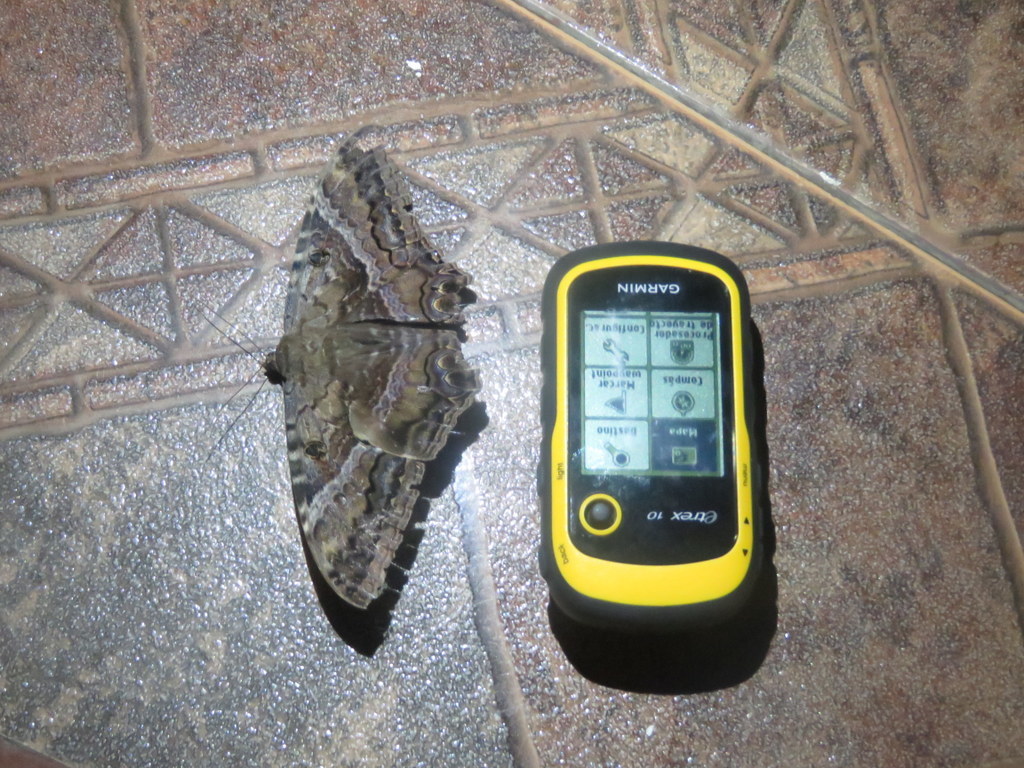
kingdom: Animalia
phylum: Arthropoda
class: Insecta
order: Lepidoptera
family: Erebidae
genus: Ascalapha
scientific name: Ascalapha odorata
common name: Black witch
